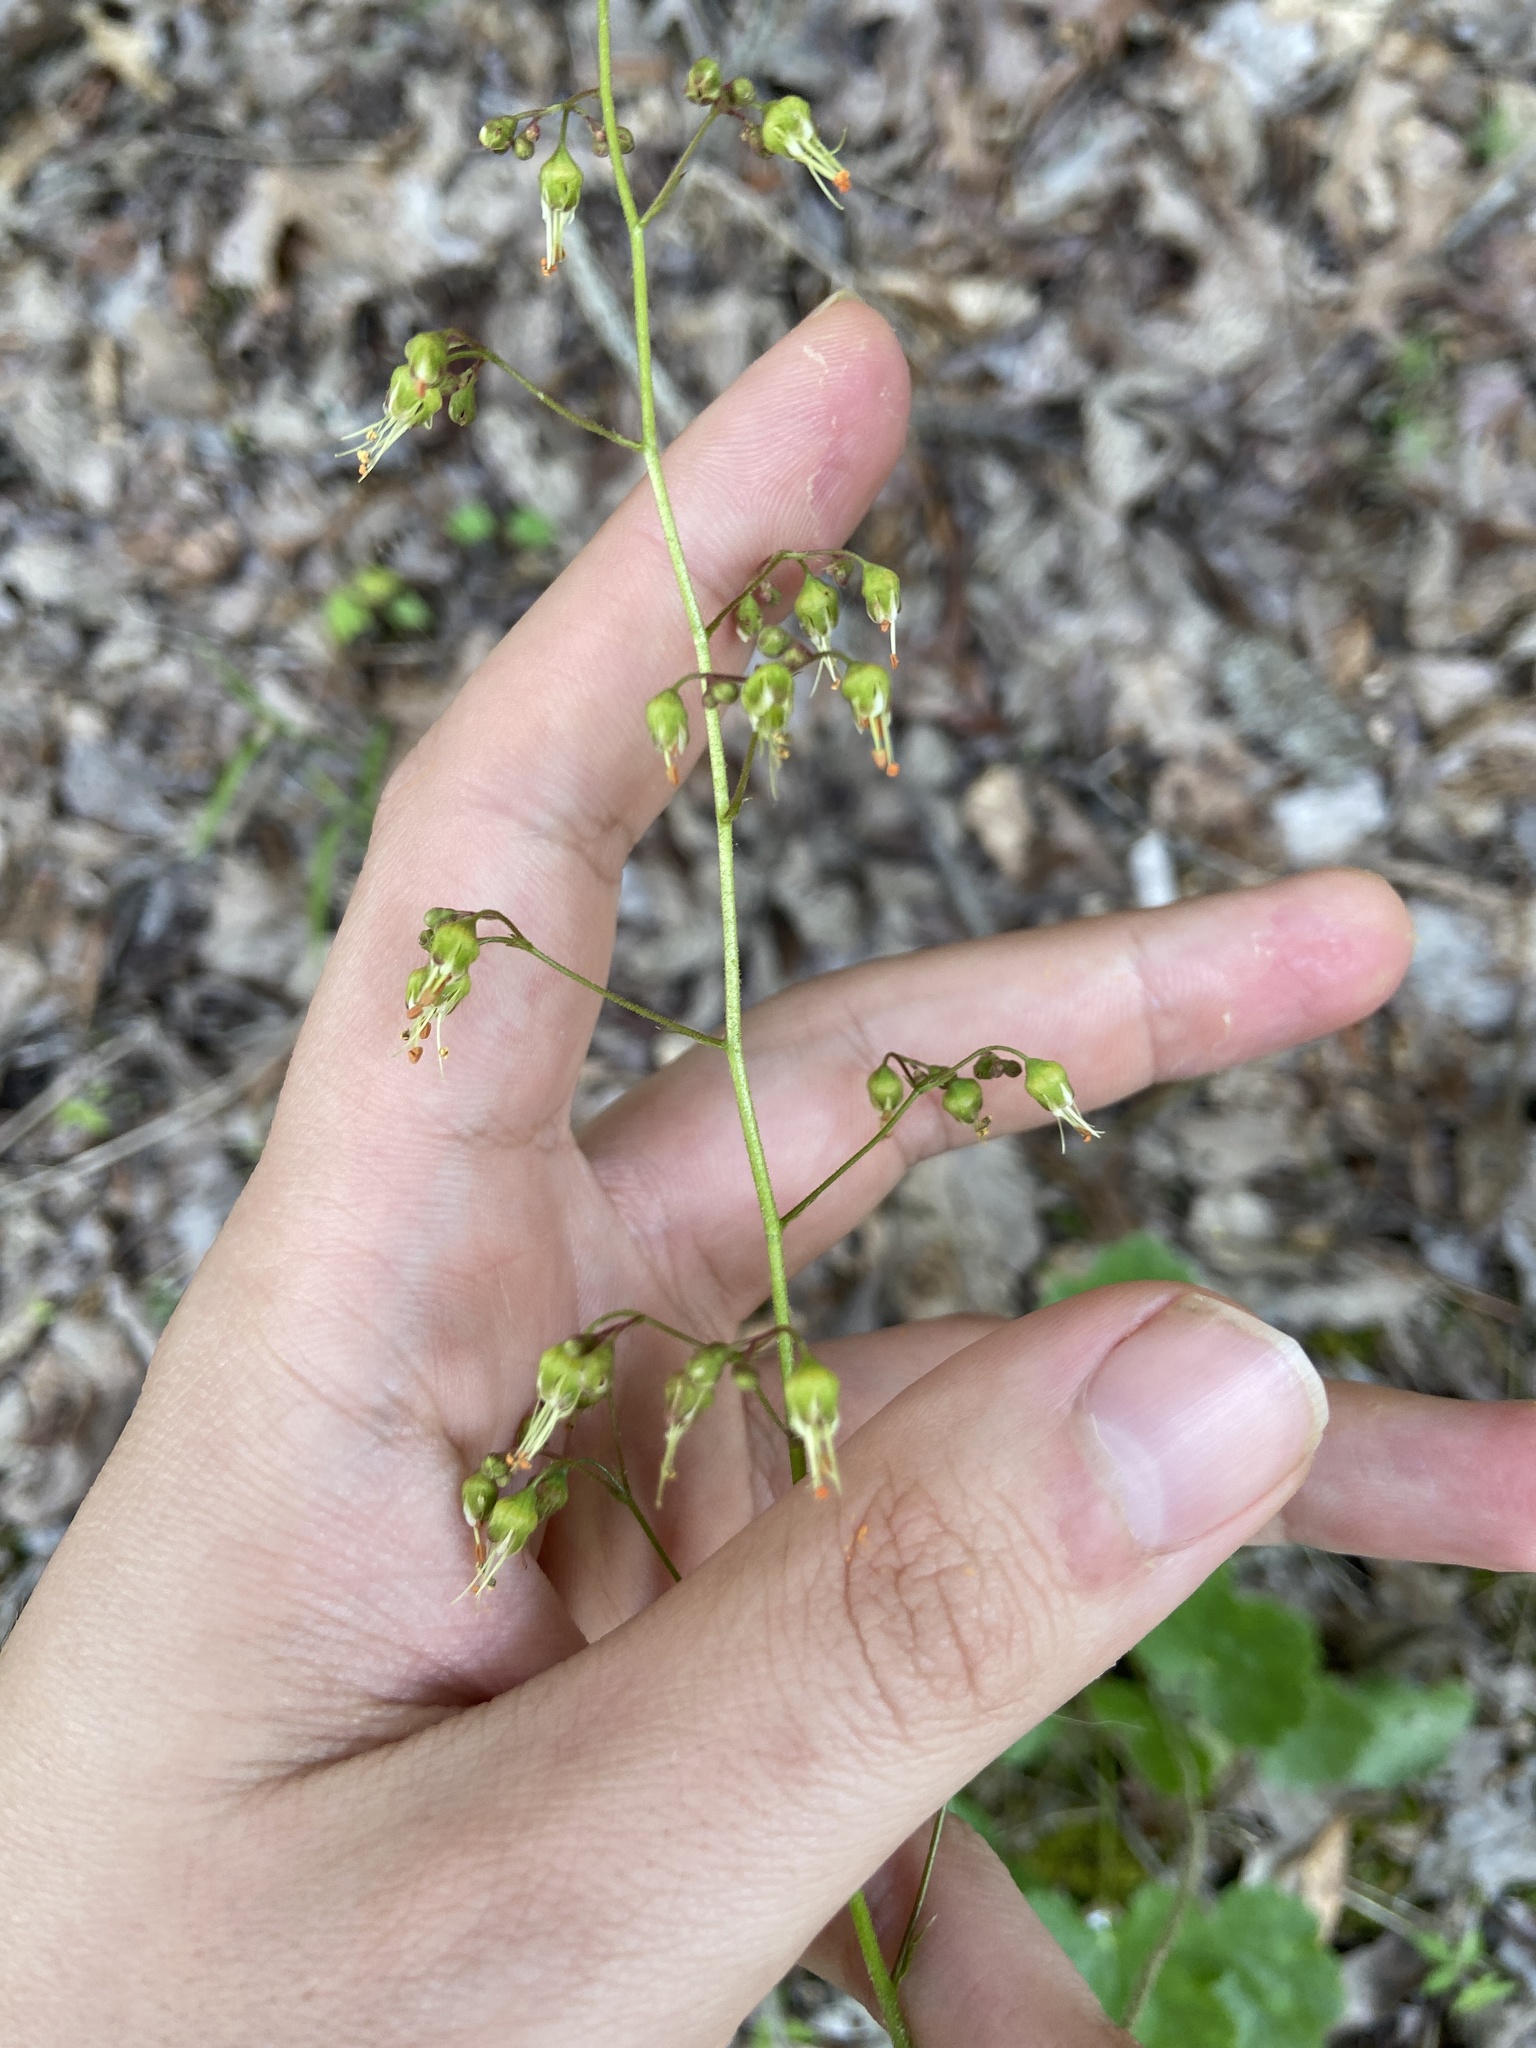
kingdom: Plantae
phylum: Tracheophyta
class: Magnoliopsida
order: Saxifragales
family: Saxifragaceae
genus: Heuchera
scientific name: Heuchera americana
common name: Alumroot
